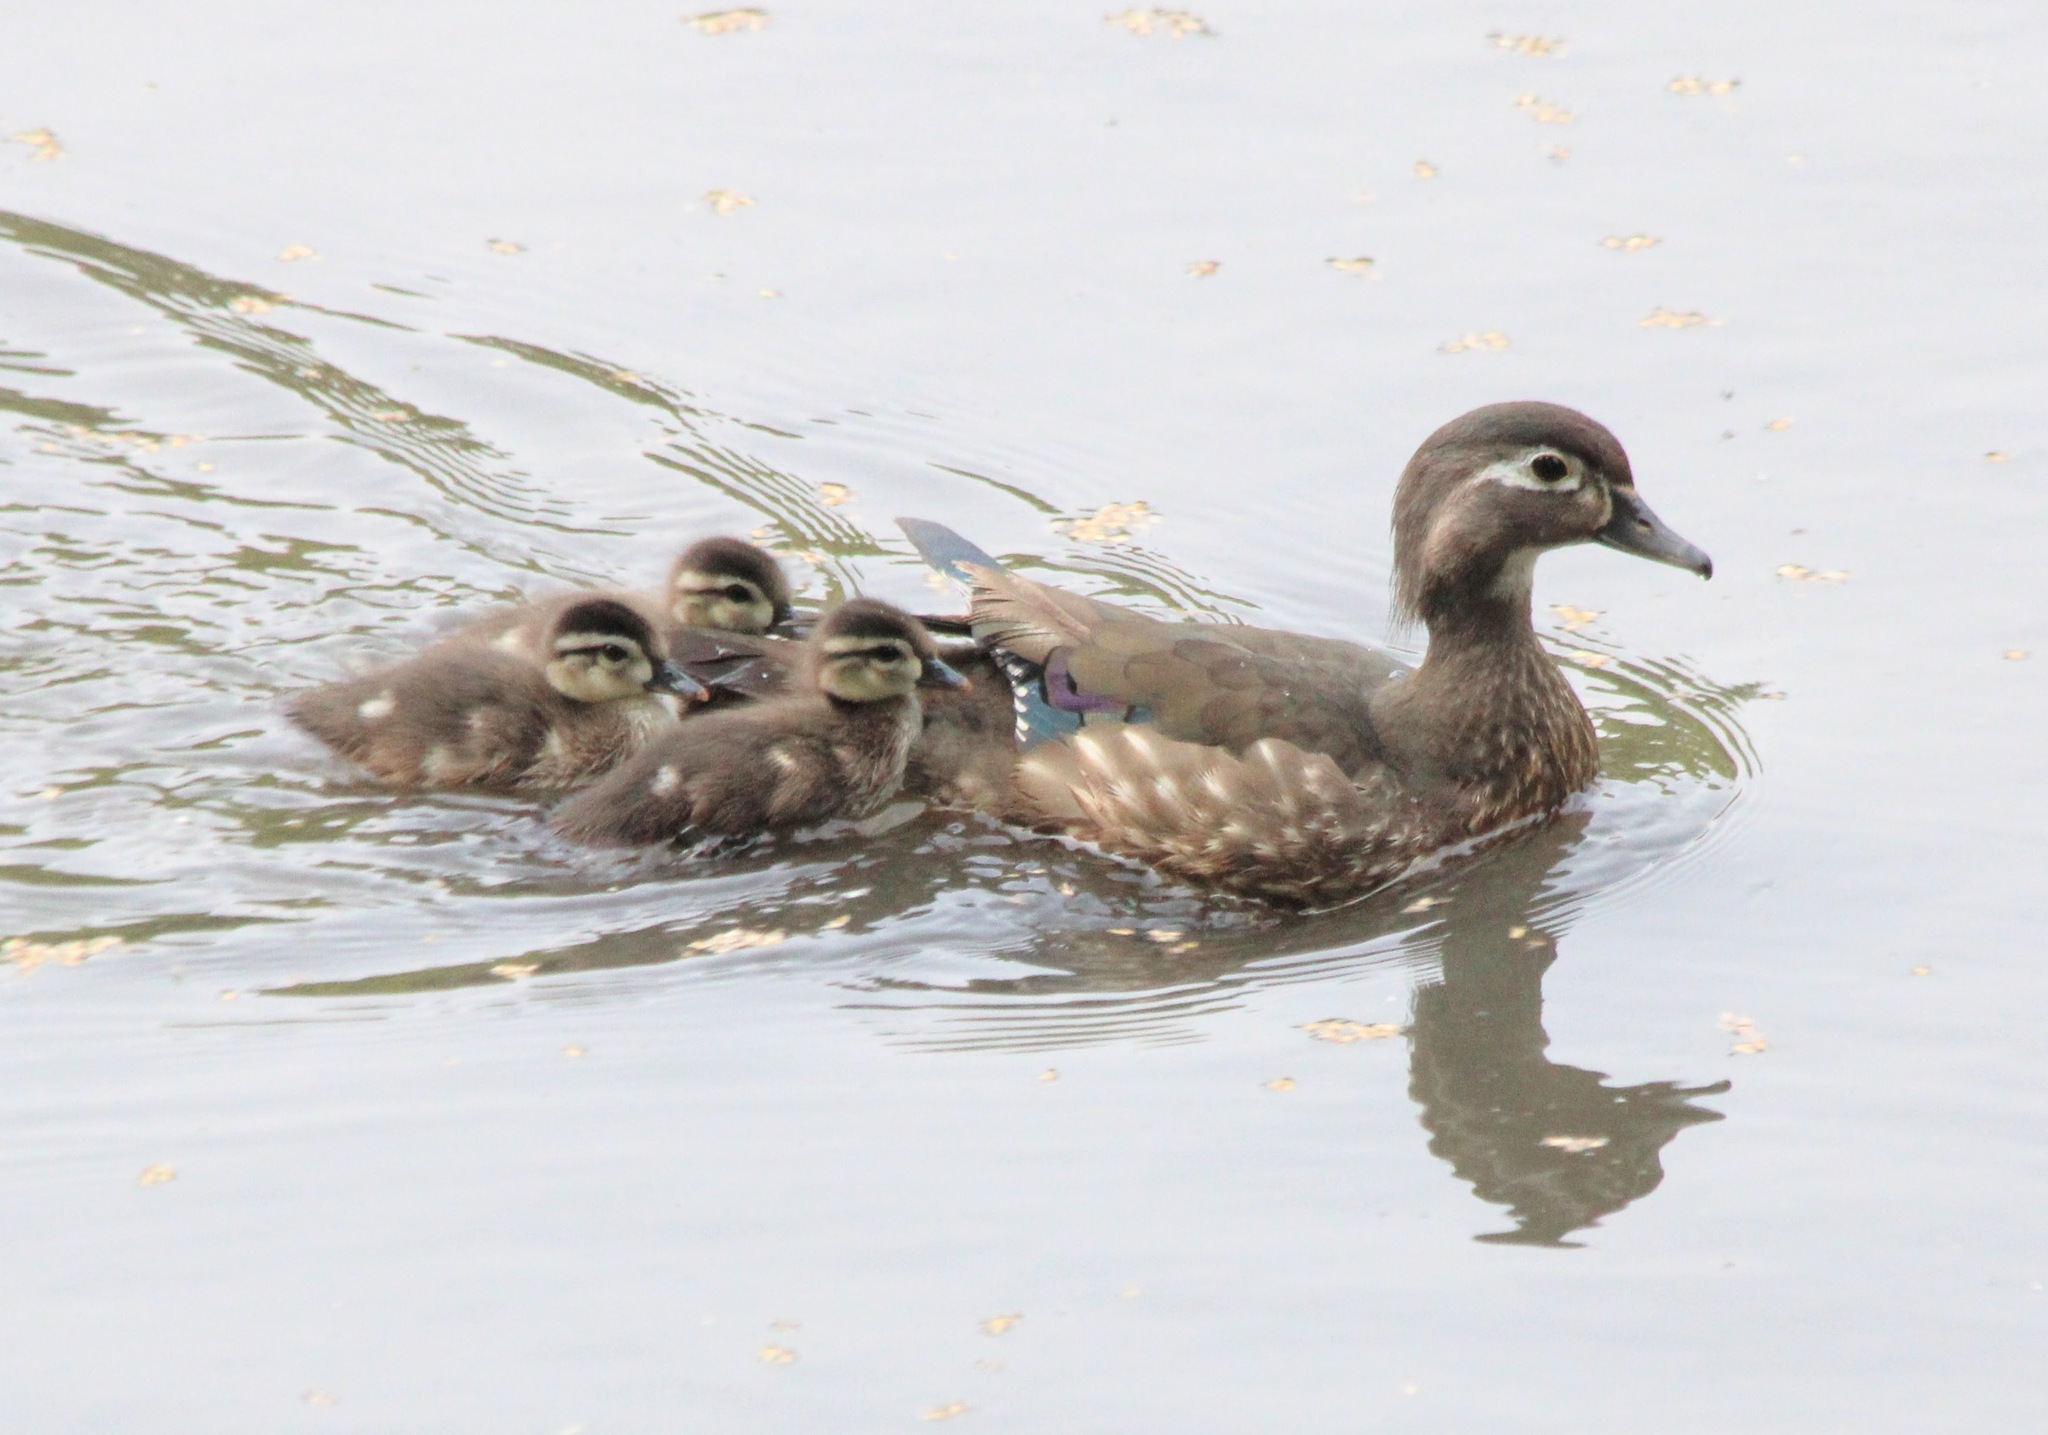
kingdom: Animalia
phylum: Chordata
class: Aves
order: Anseriformes
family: Anatidae
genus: Aix
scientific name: Aix sponsa
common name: Wood duck
